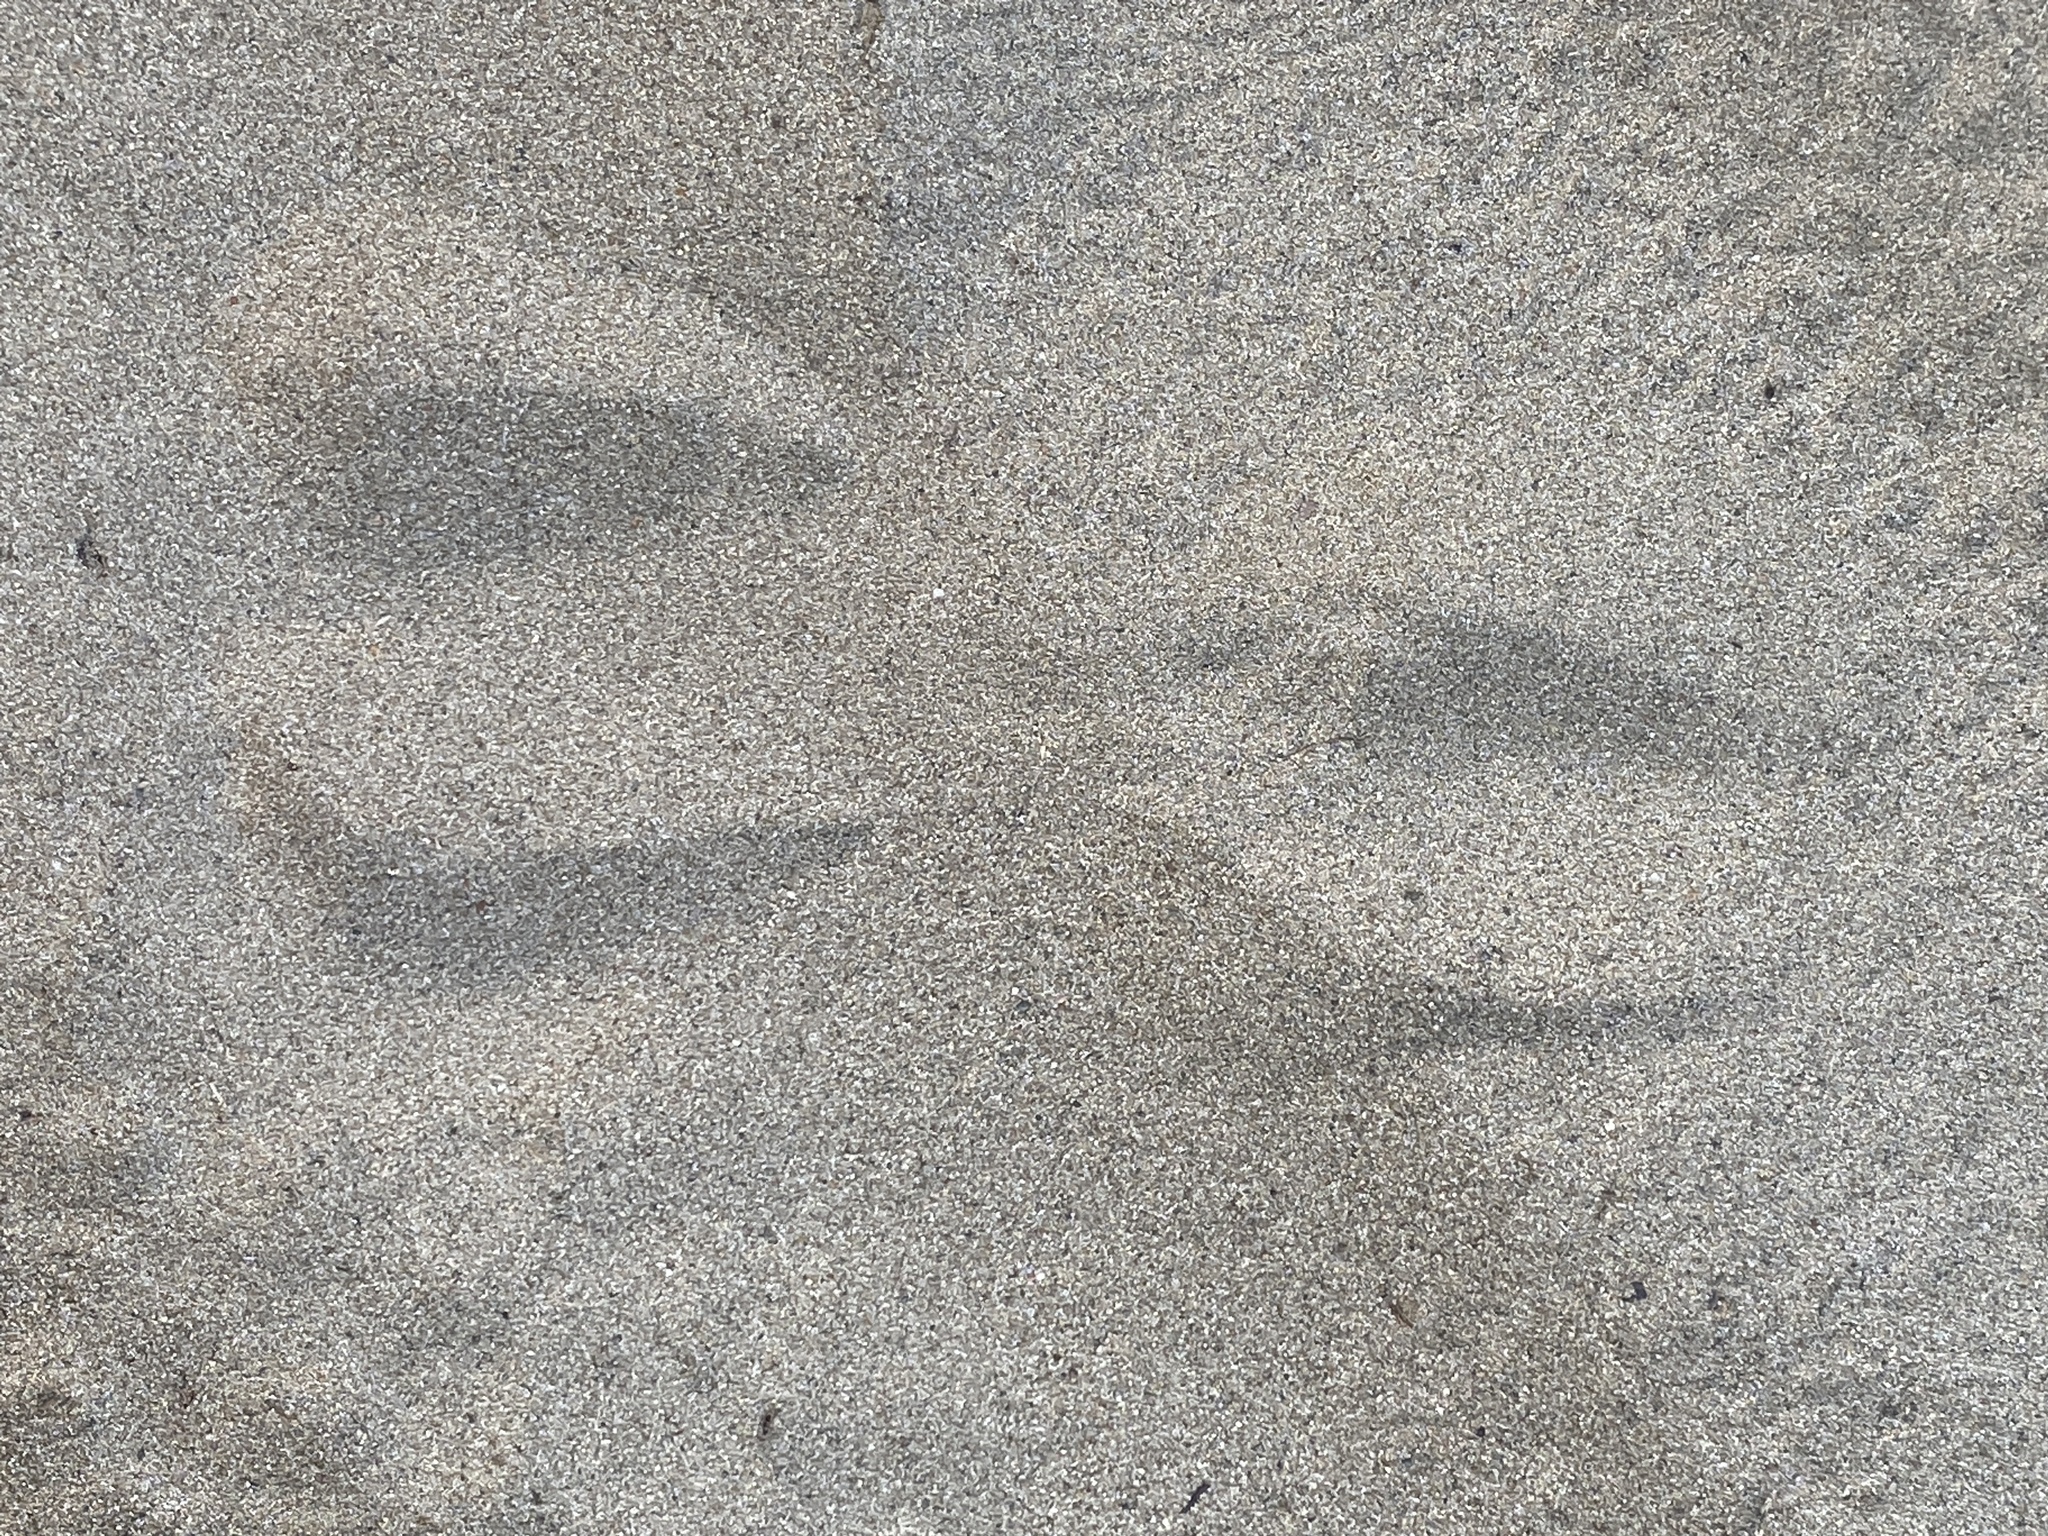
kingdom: Animalia
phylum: Chordata
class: Mammalia
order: Artiodactyla
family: Cervidae
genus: Odocoileus
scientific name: Odocoileus virginianus
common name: White-tailed deer
